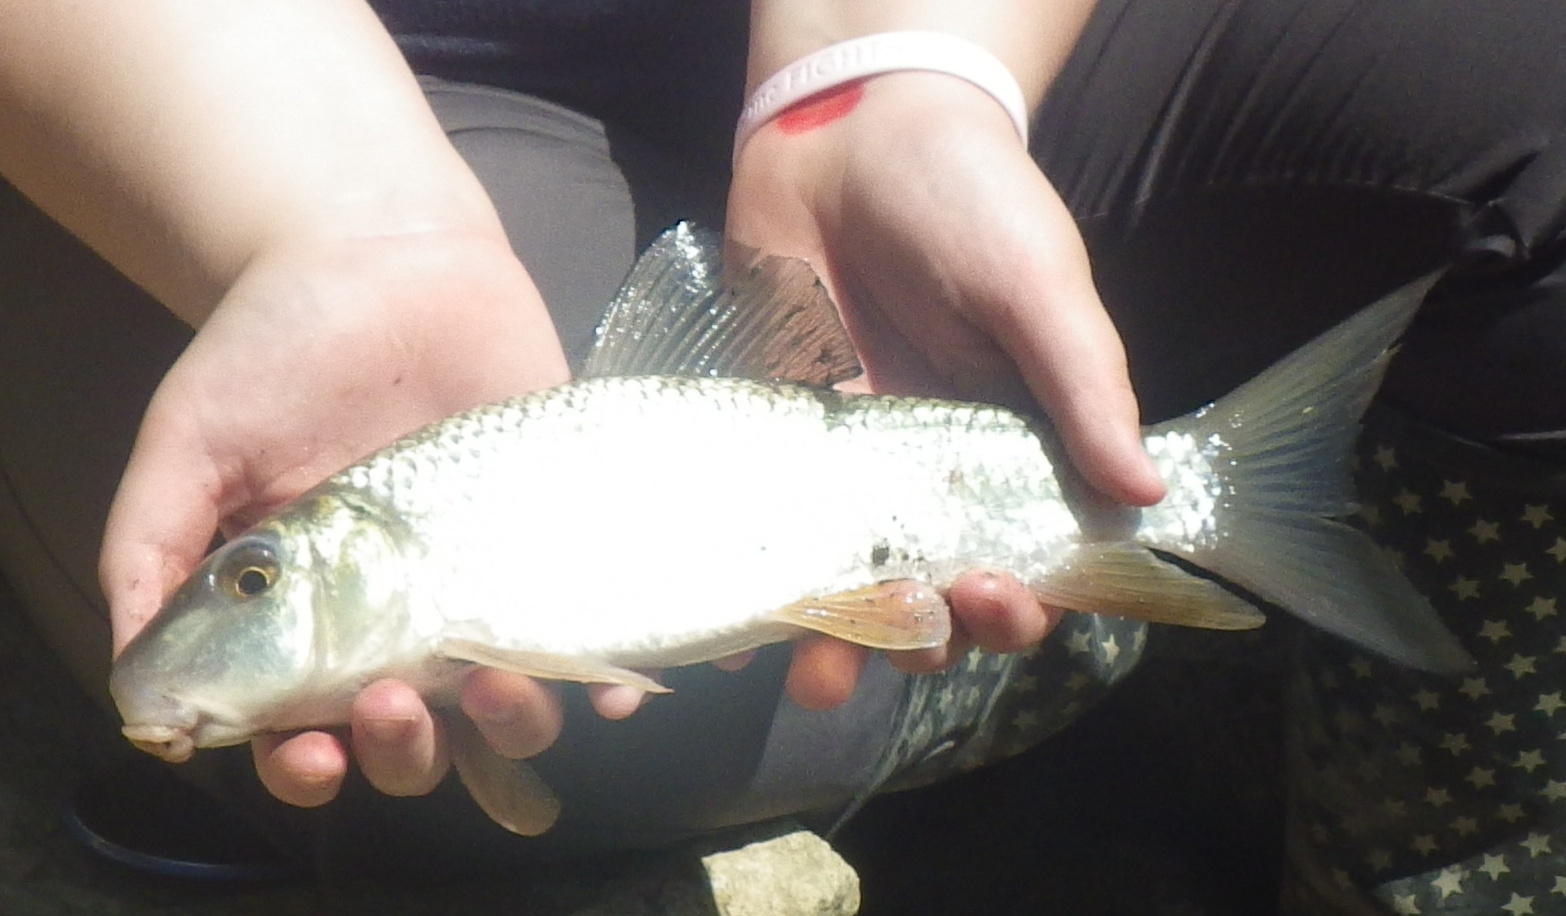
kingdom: Animalia
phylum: Chordata
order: Cypriniformes
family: Catostomidae
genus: Moxostoma
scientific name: Moxostoma anisurum
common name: Silver redhorse
